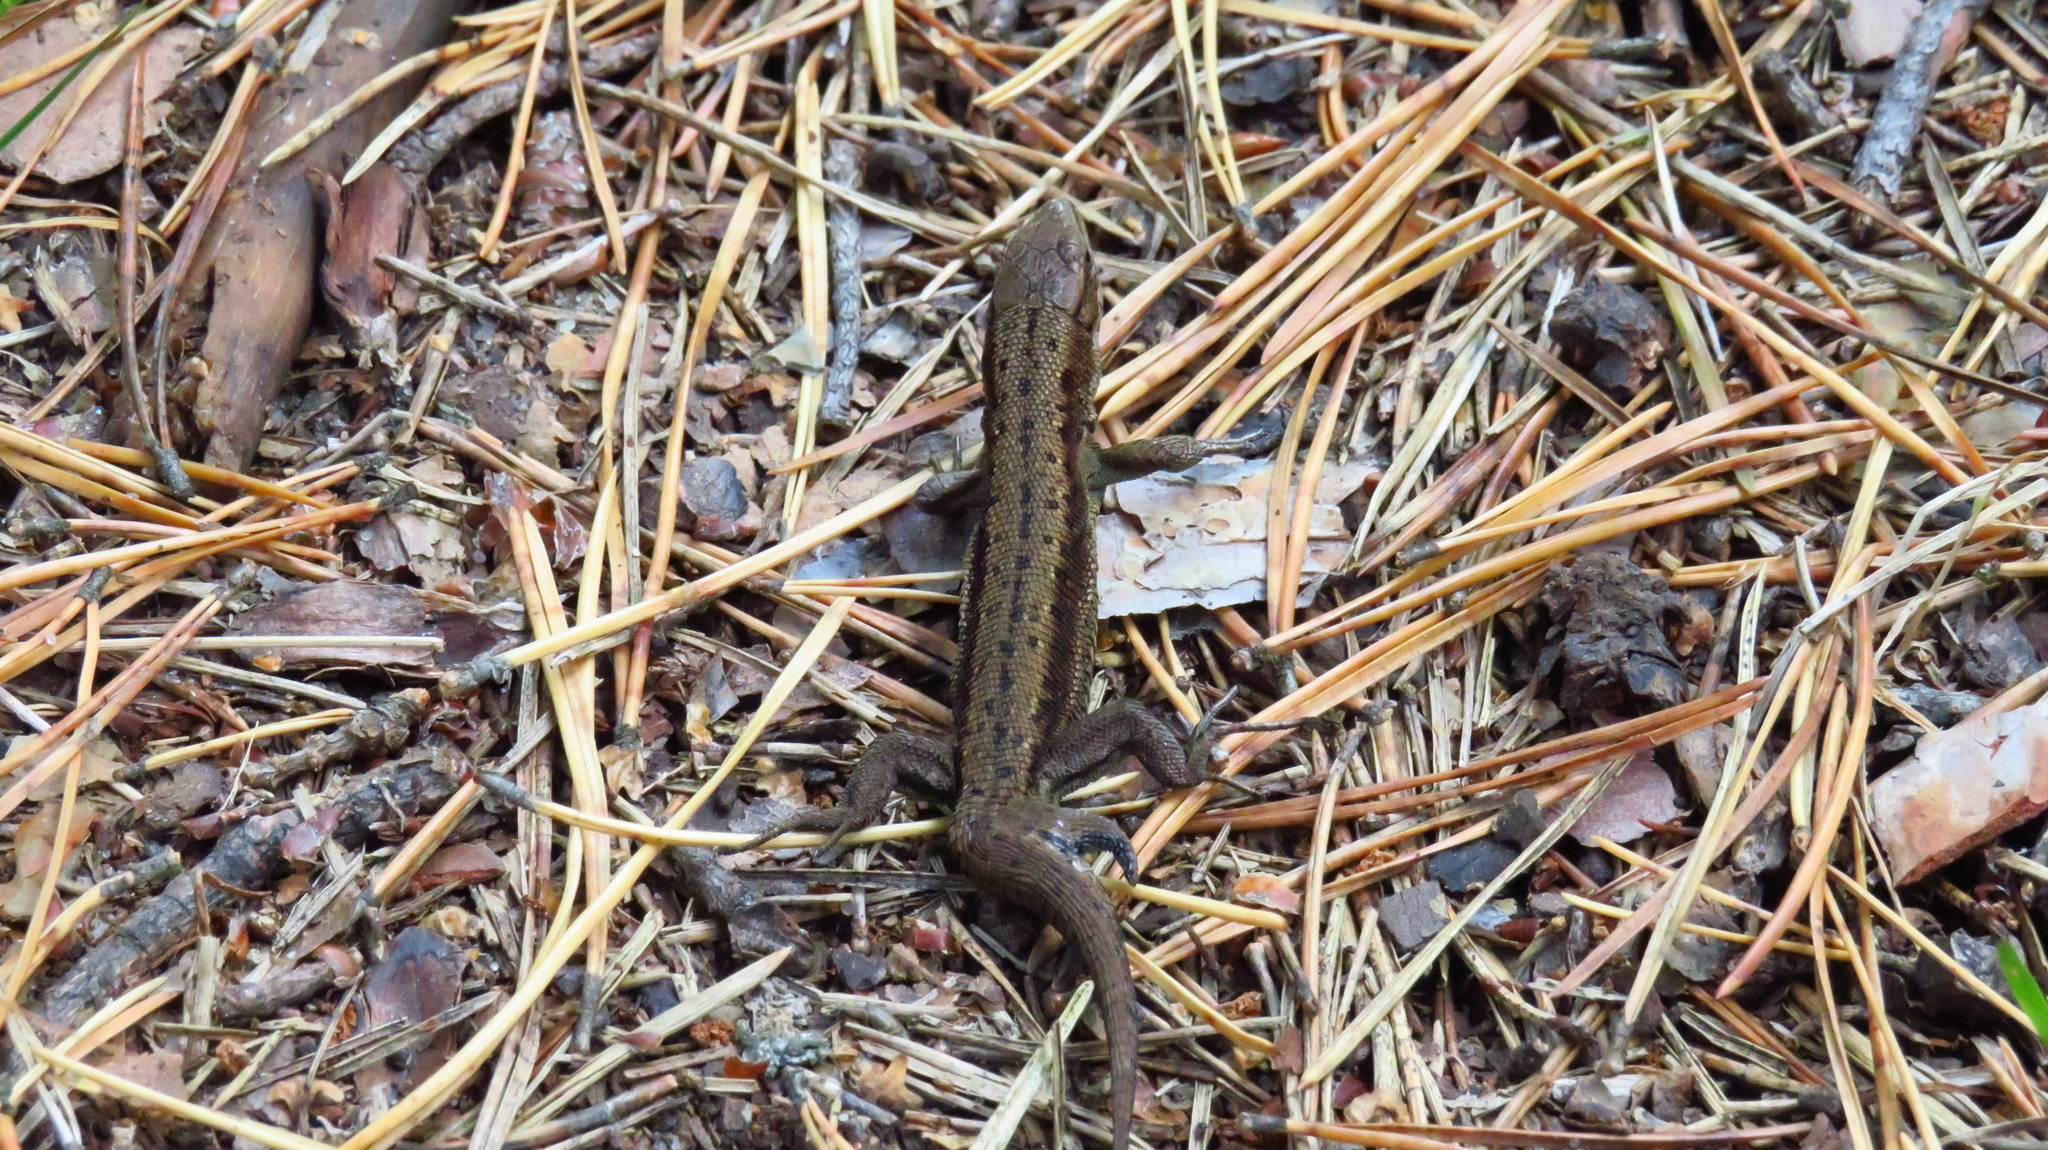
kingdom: Animalia
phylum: Chordata
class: Squamata
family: Lacertidae
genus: Zootoca
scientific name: Zootoca vivipara
